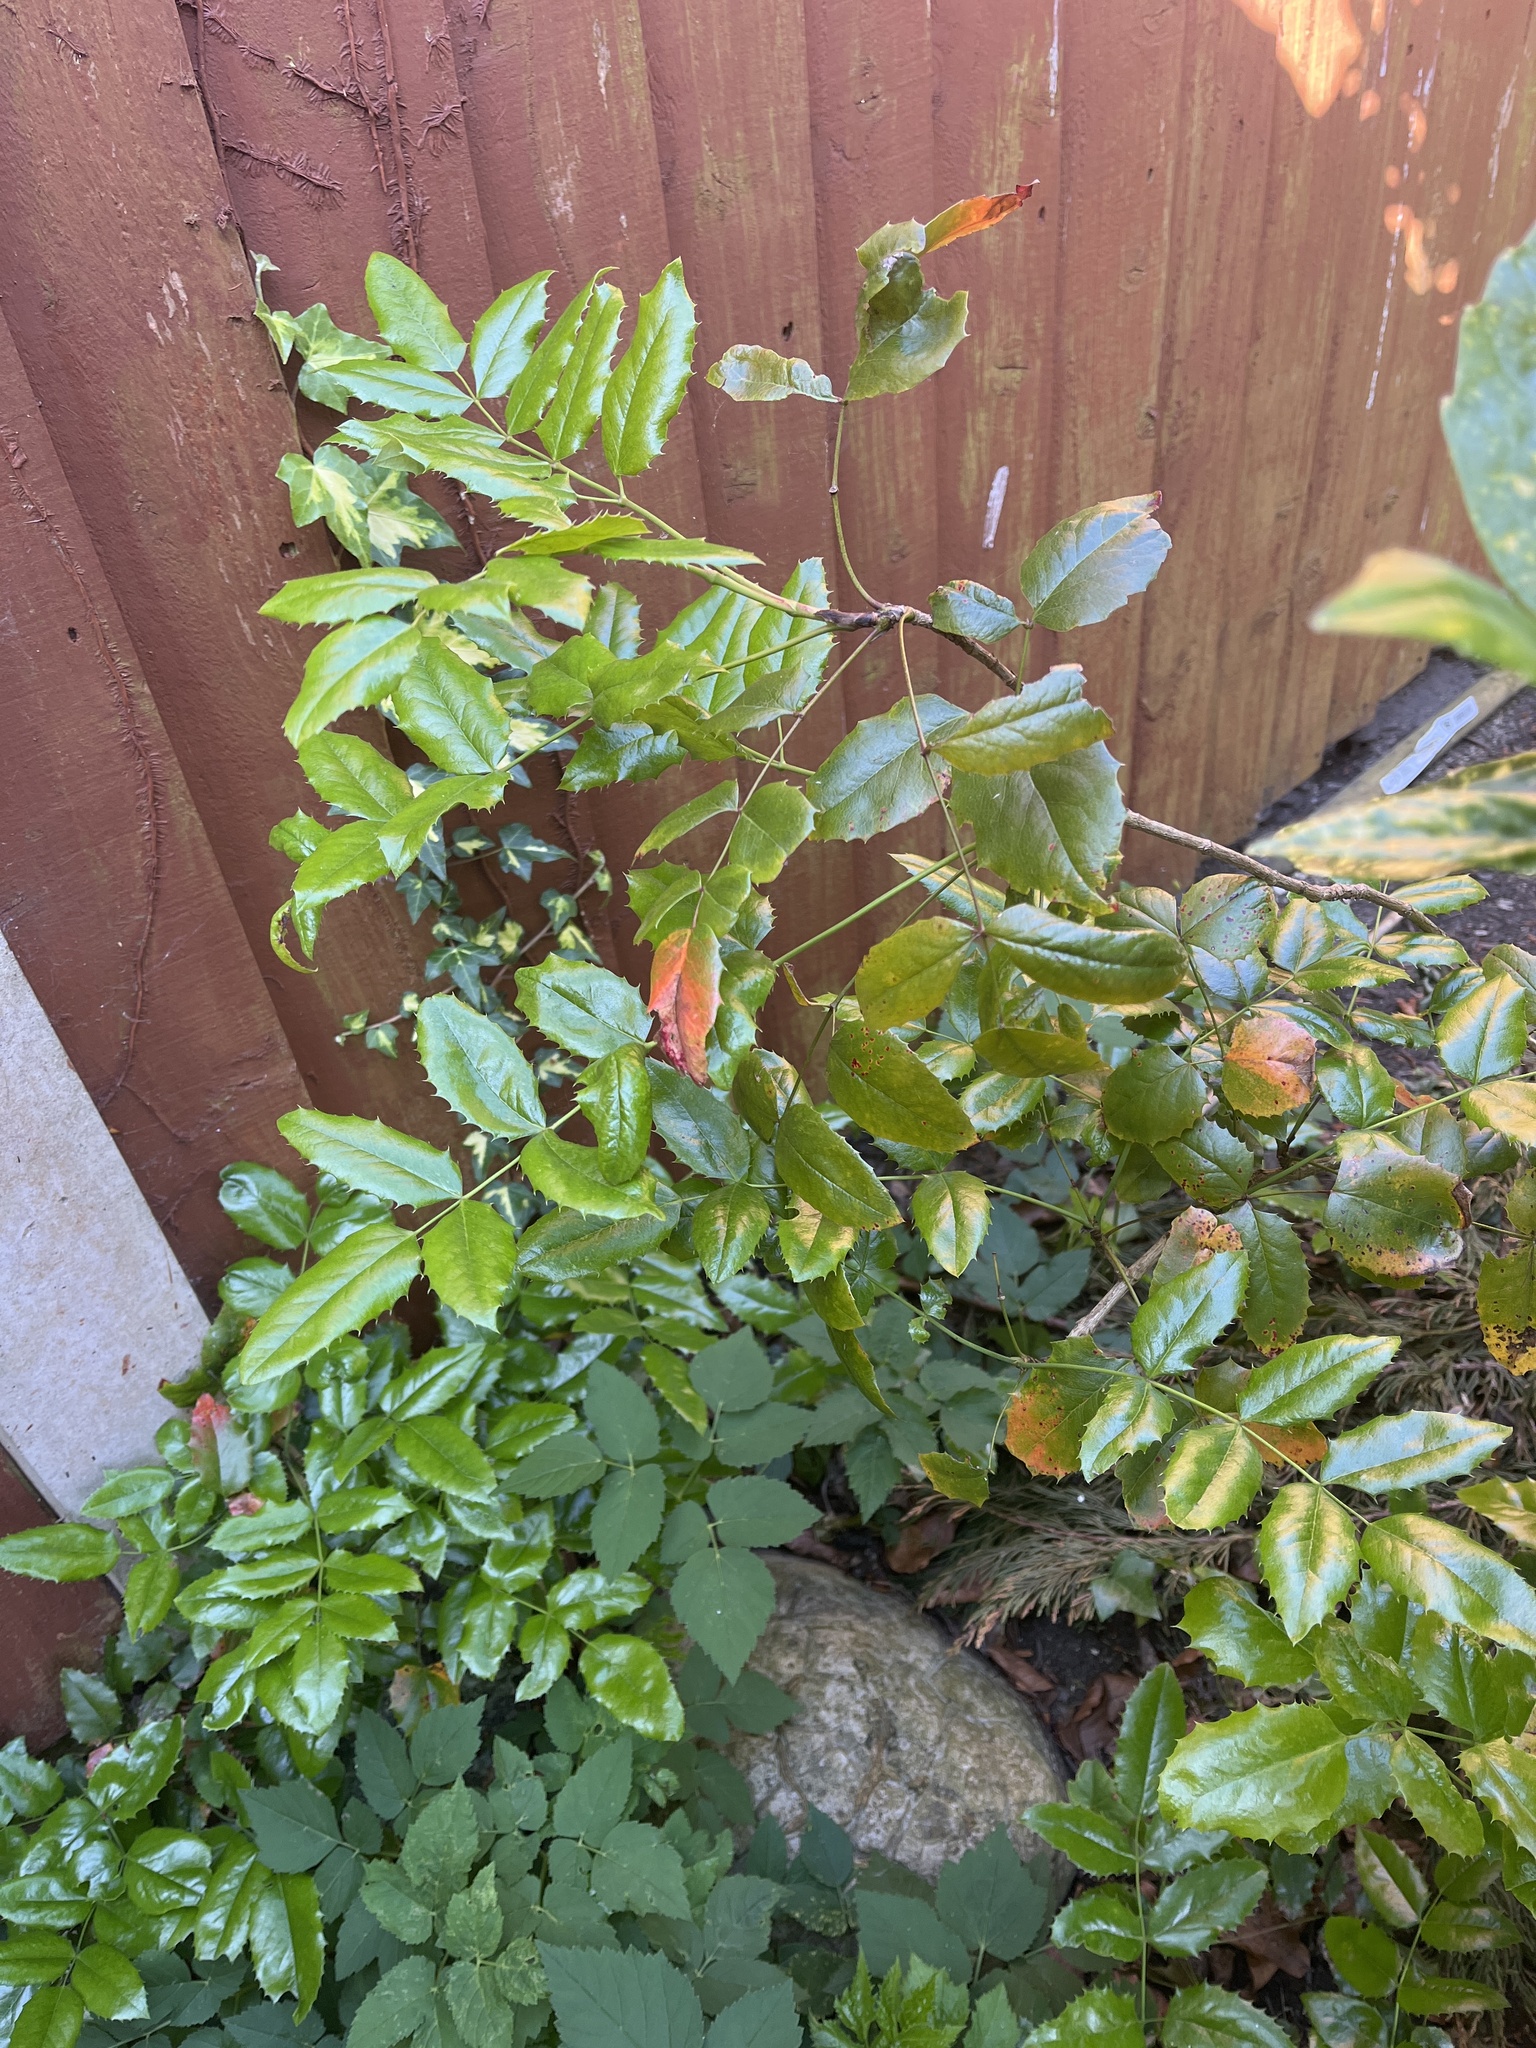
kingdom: Plantae
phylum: Tracheophyta
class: Magnoliopsida
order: Ranunculales
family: Berberidaceae
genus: Mahonia
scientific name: Mahonia aquifolium
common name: Oregon-grape
